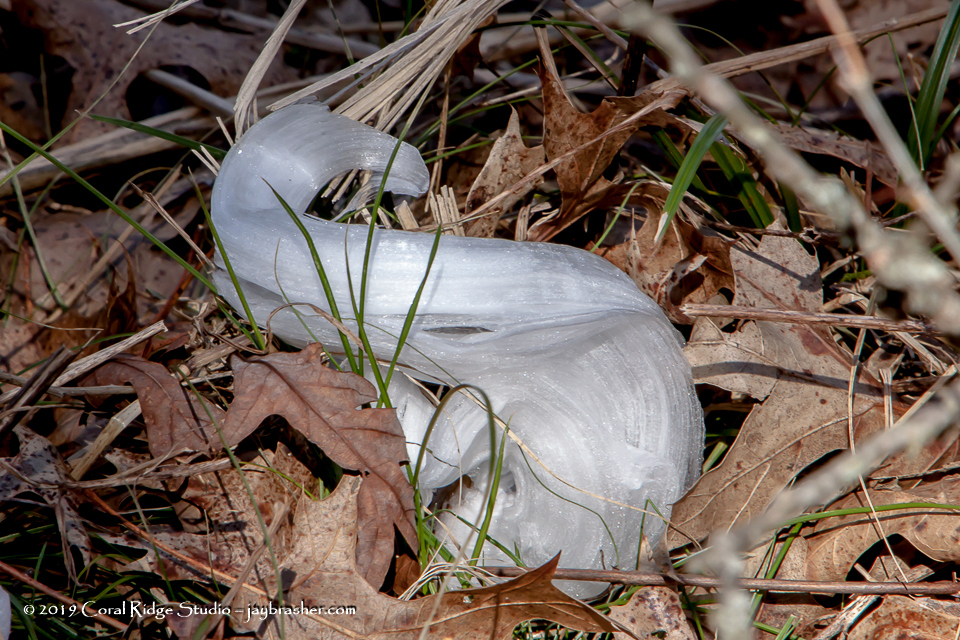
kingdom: Plantae
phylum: Tracheophyta
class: Magnoliopsida
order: Asterales
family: Asteraceae
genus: Verbesina
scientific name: Verbesina virginica
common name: Frostweed
